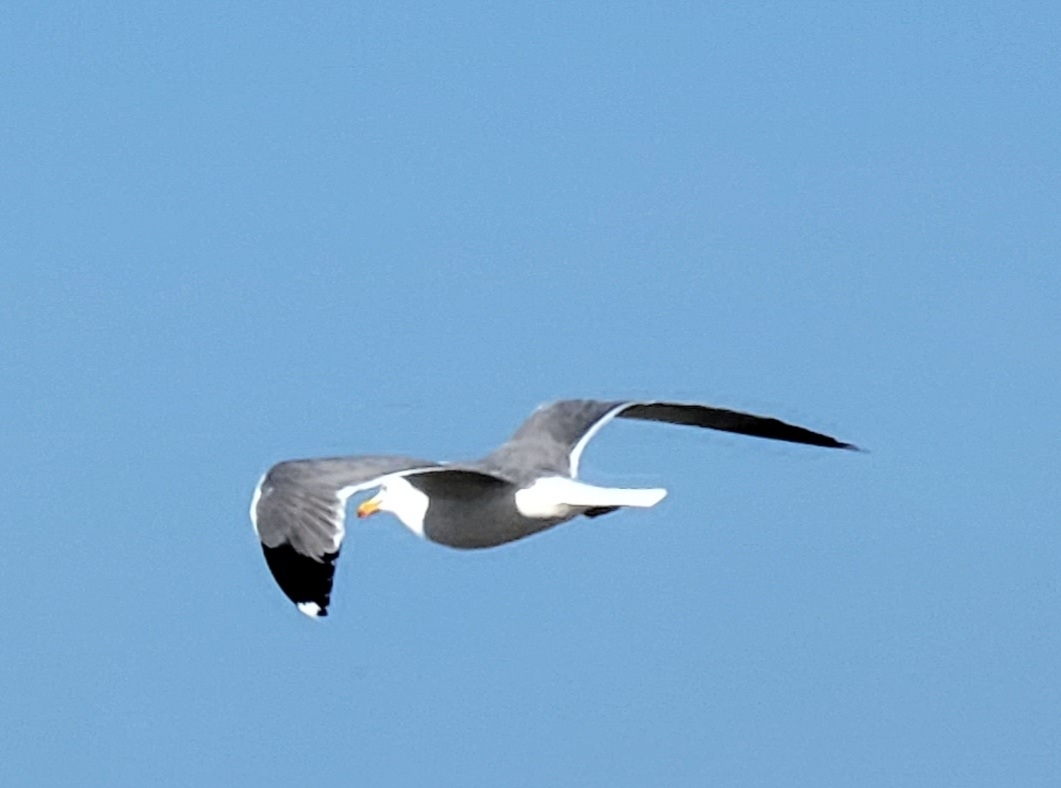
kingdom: Animalia
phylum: Chordata
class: Aves
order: Charadriiformes
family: Laridae
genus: Larus
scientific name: Larus californicus
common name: California gull
